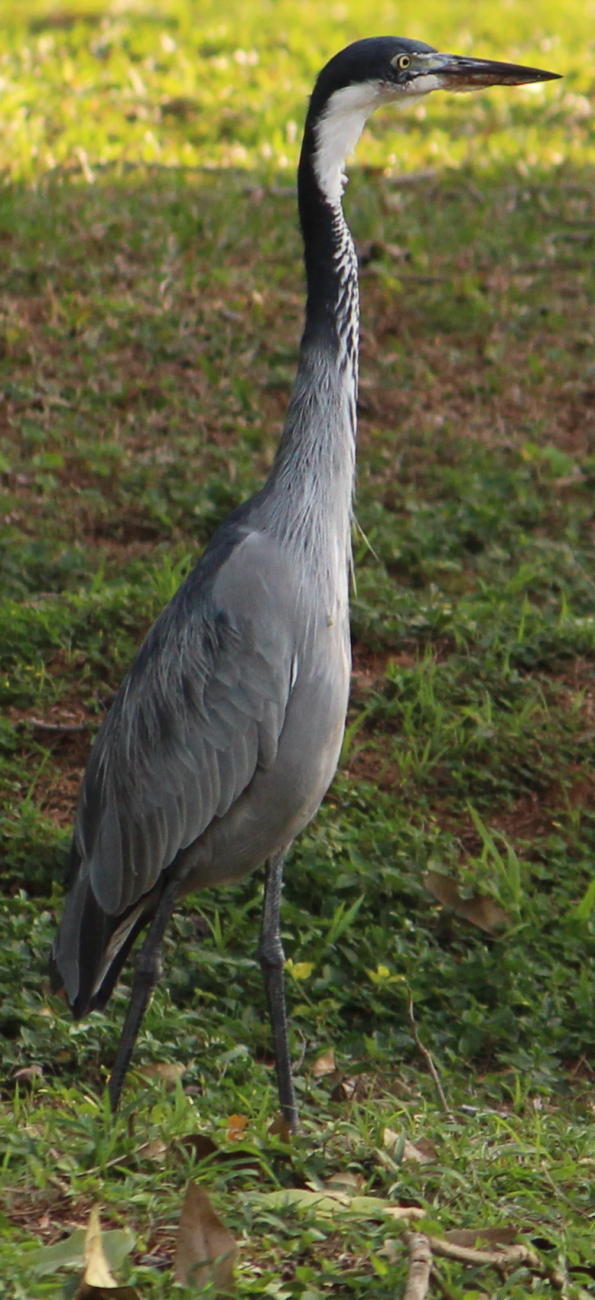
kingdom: Animalia
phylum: Chordata
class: Aves
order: Pelecaniformes
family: Ardeidae
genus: Ardea
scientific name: Ardea melanocephala
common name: Black-headed heron
